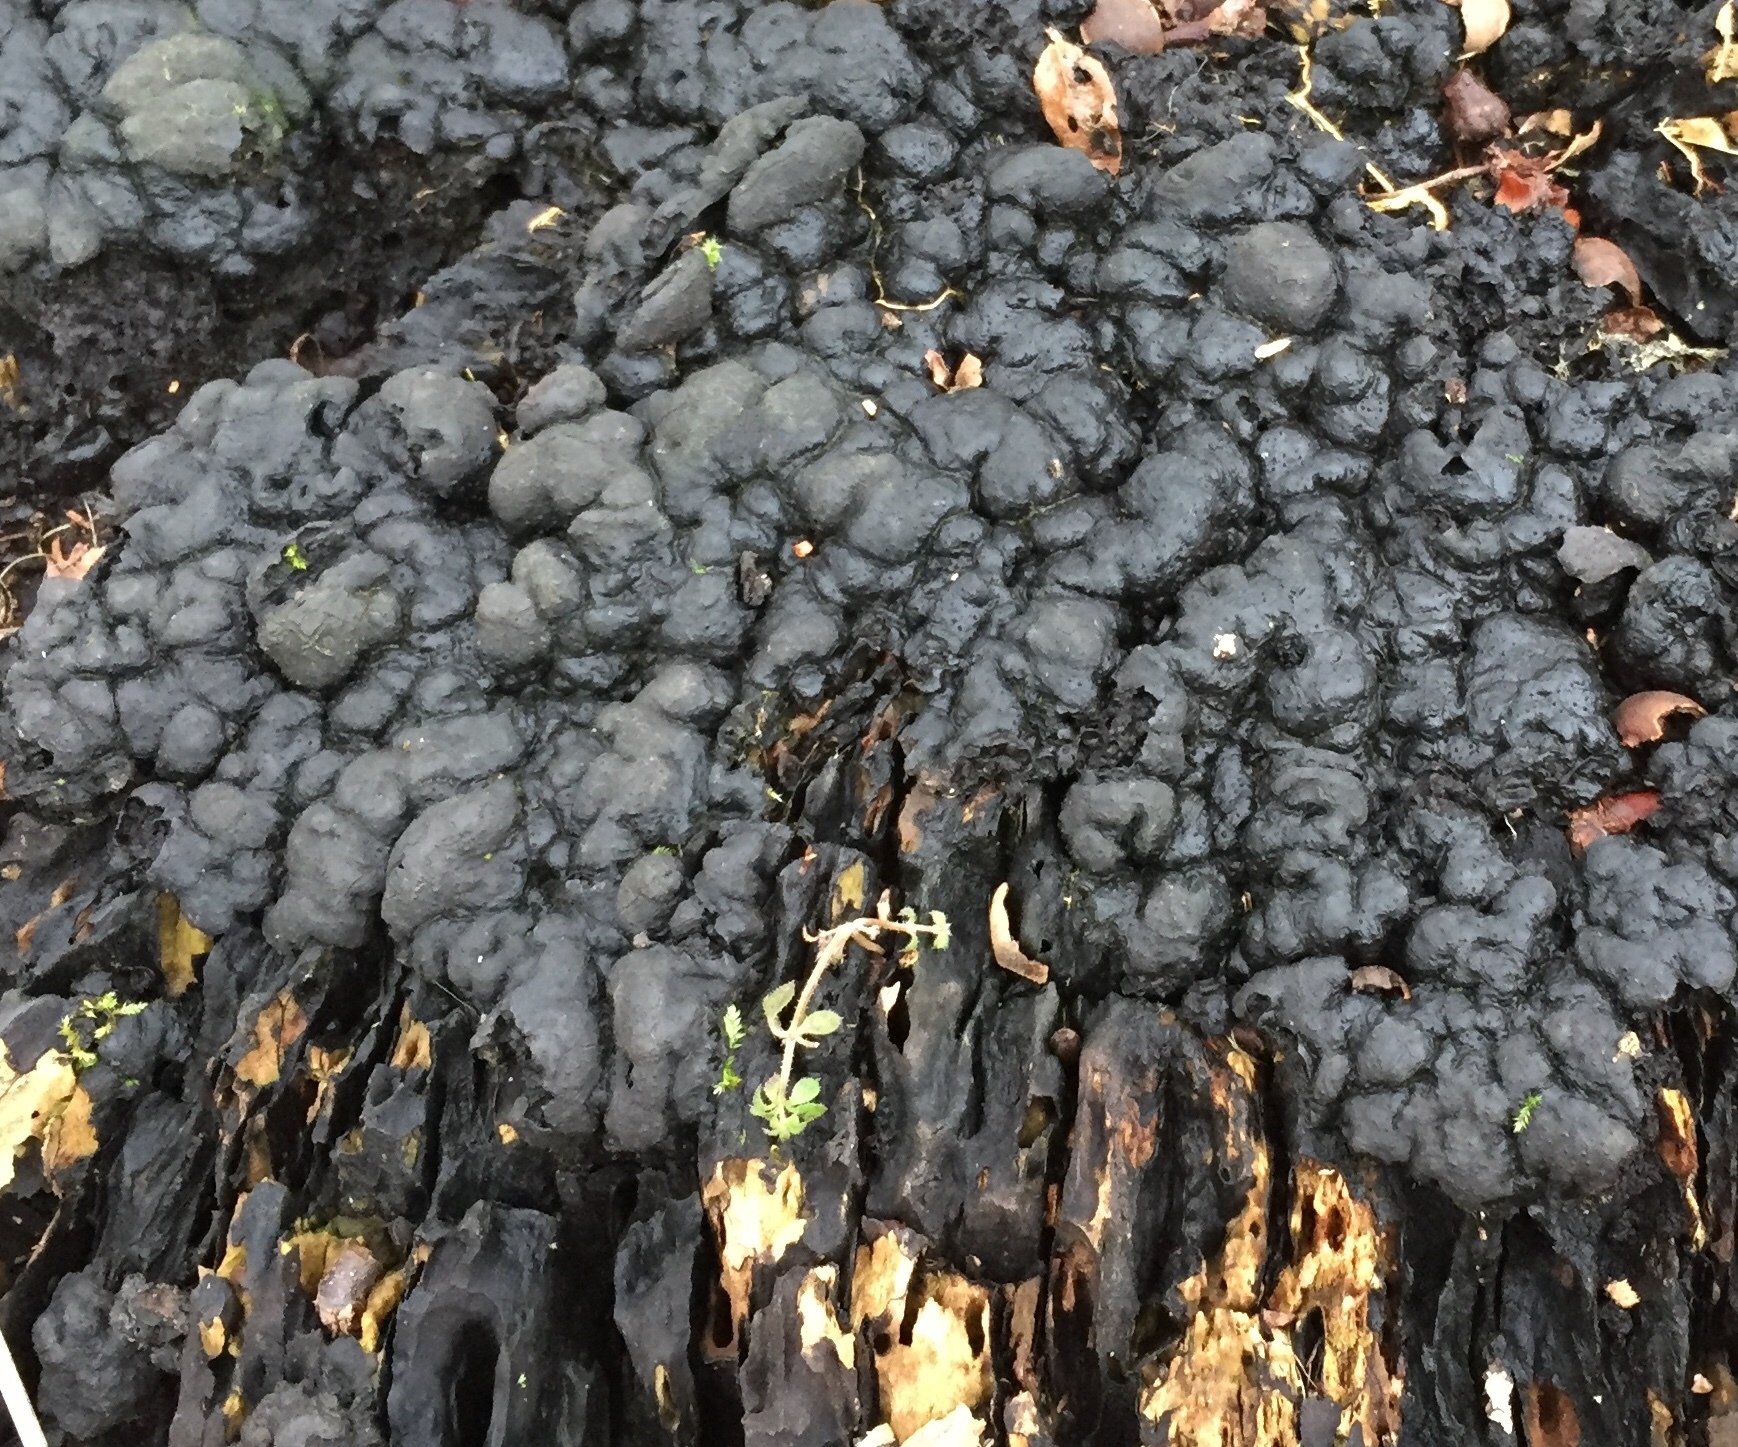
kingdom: Fungi
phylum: Ascomycota
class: Sordariomycetes
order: Xylariales
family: Xylariaceae
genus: Kretzschmaria
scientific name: Kretzschmaria deusta
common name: Brittle cinder
